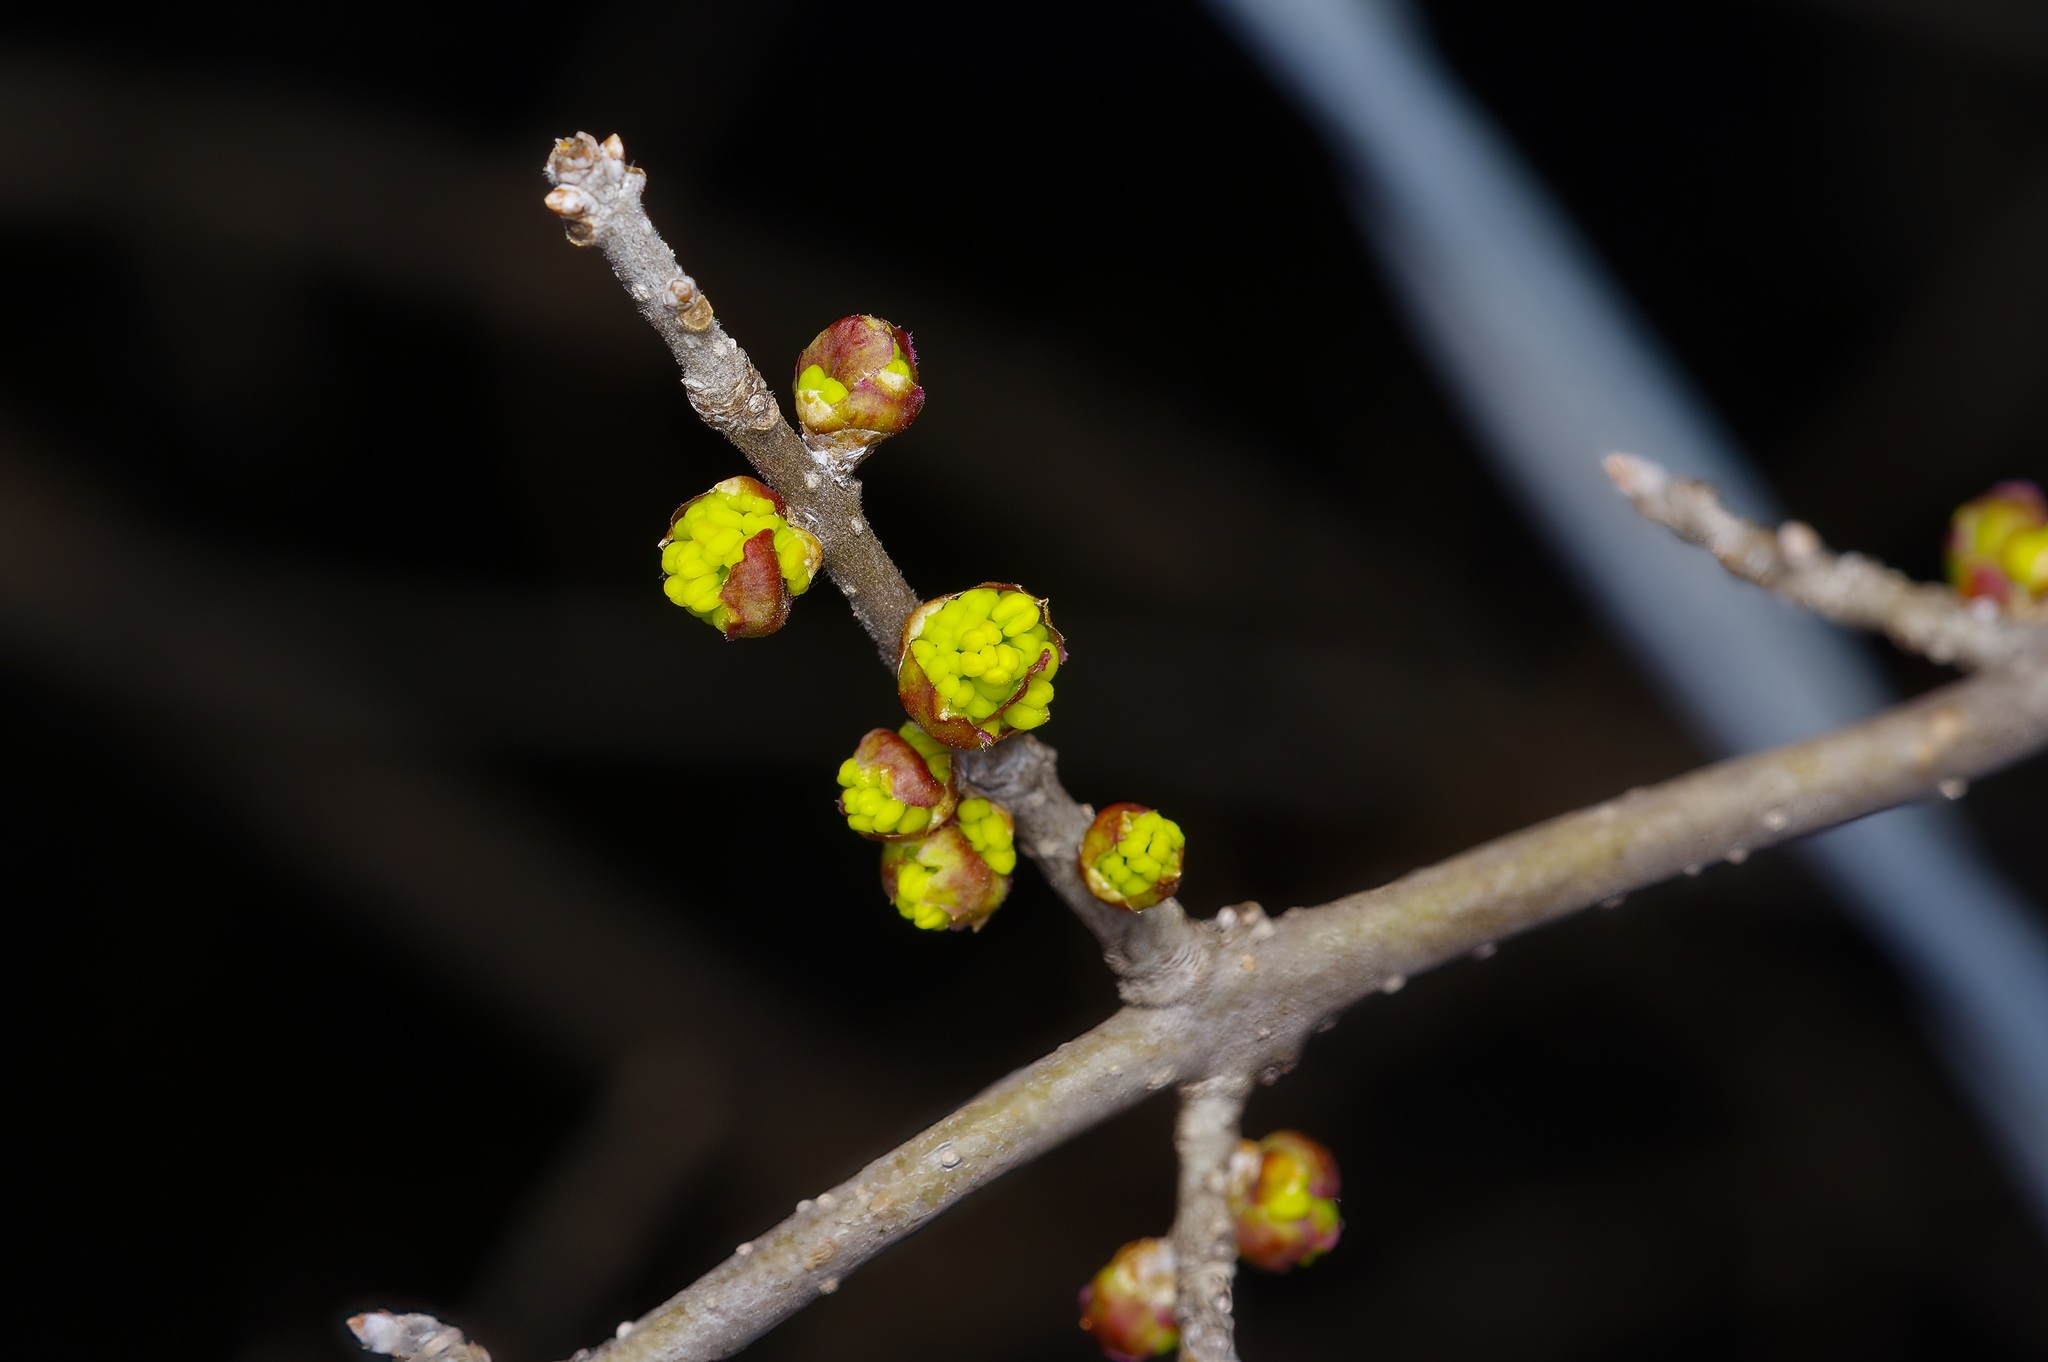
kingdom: Plantae
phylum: Tracheophyta
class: Magnoliopsida
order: Lamiales
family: Oleaceae
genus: Forestiera
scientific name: Forestiera pubescens
